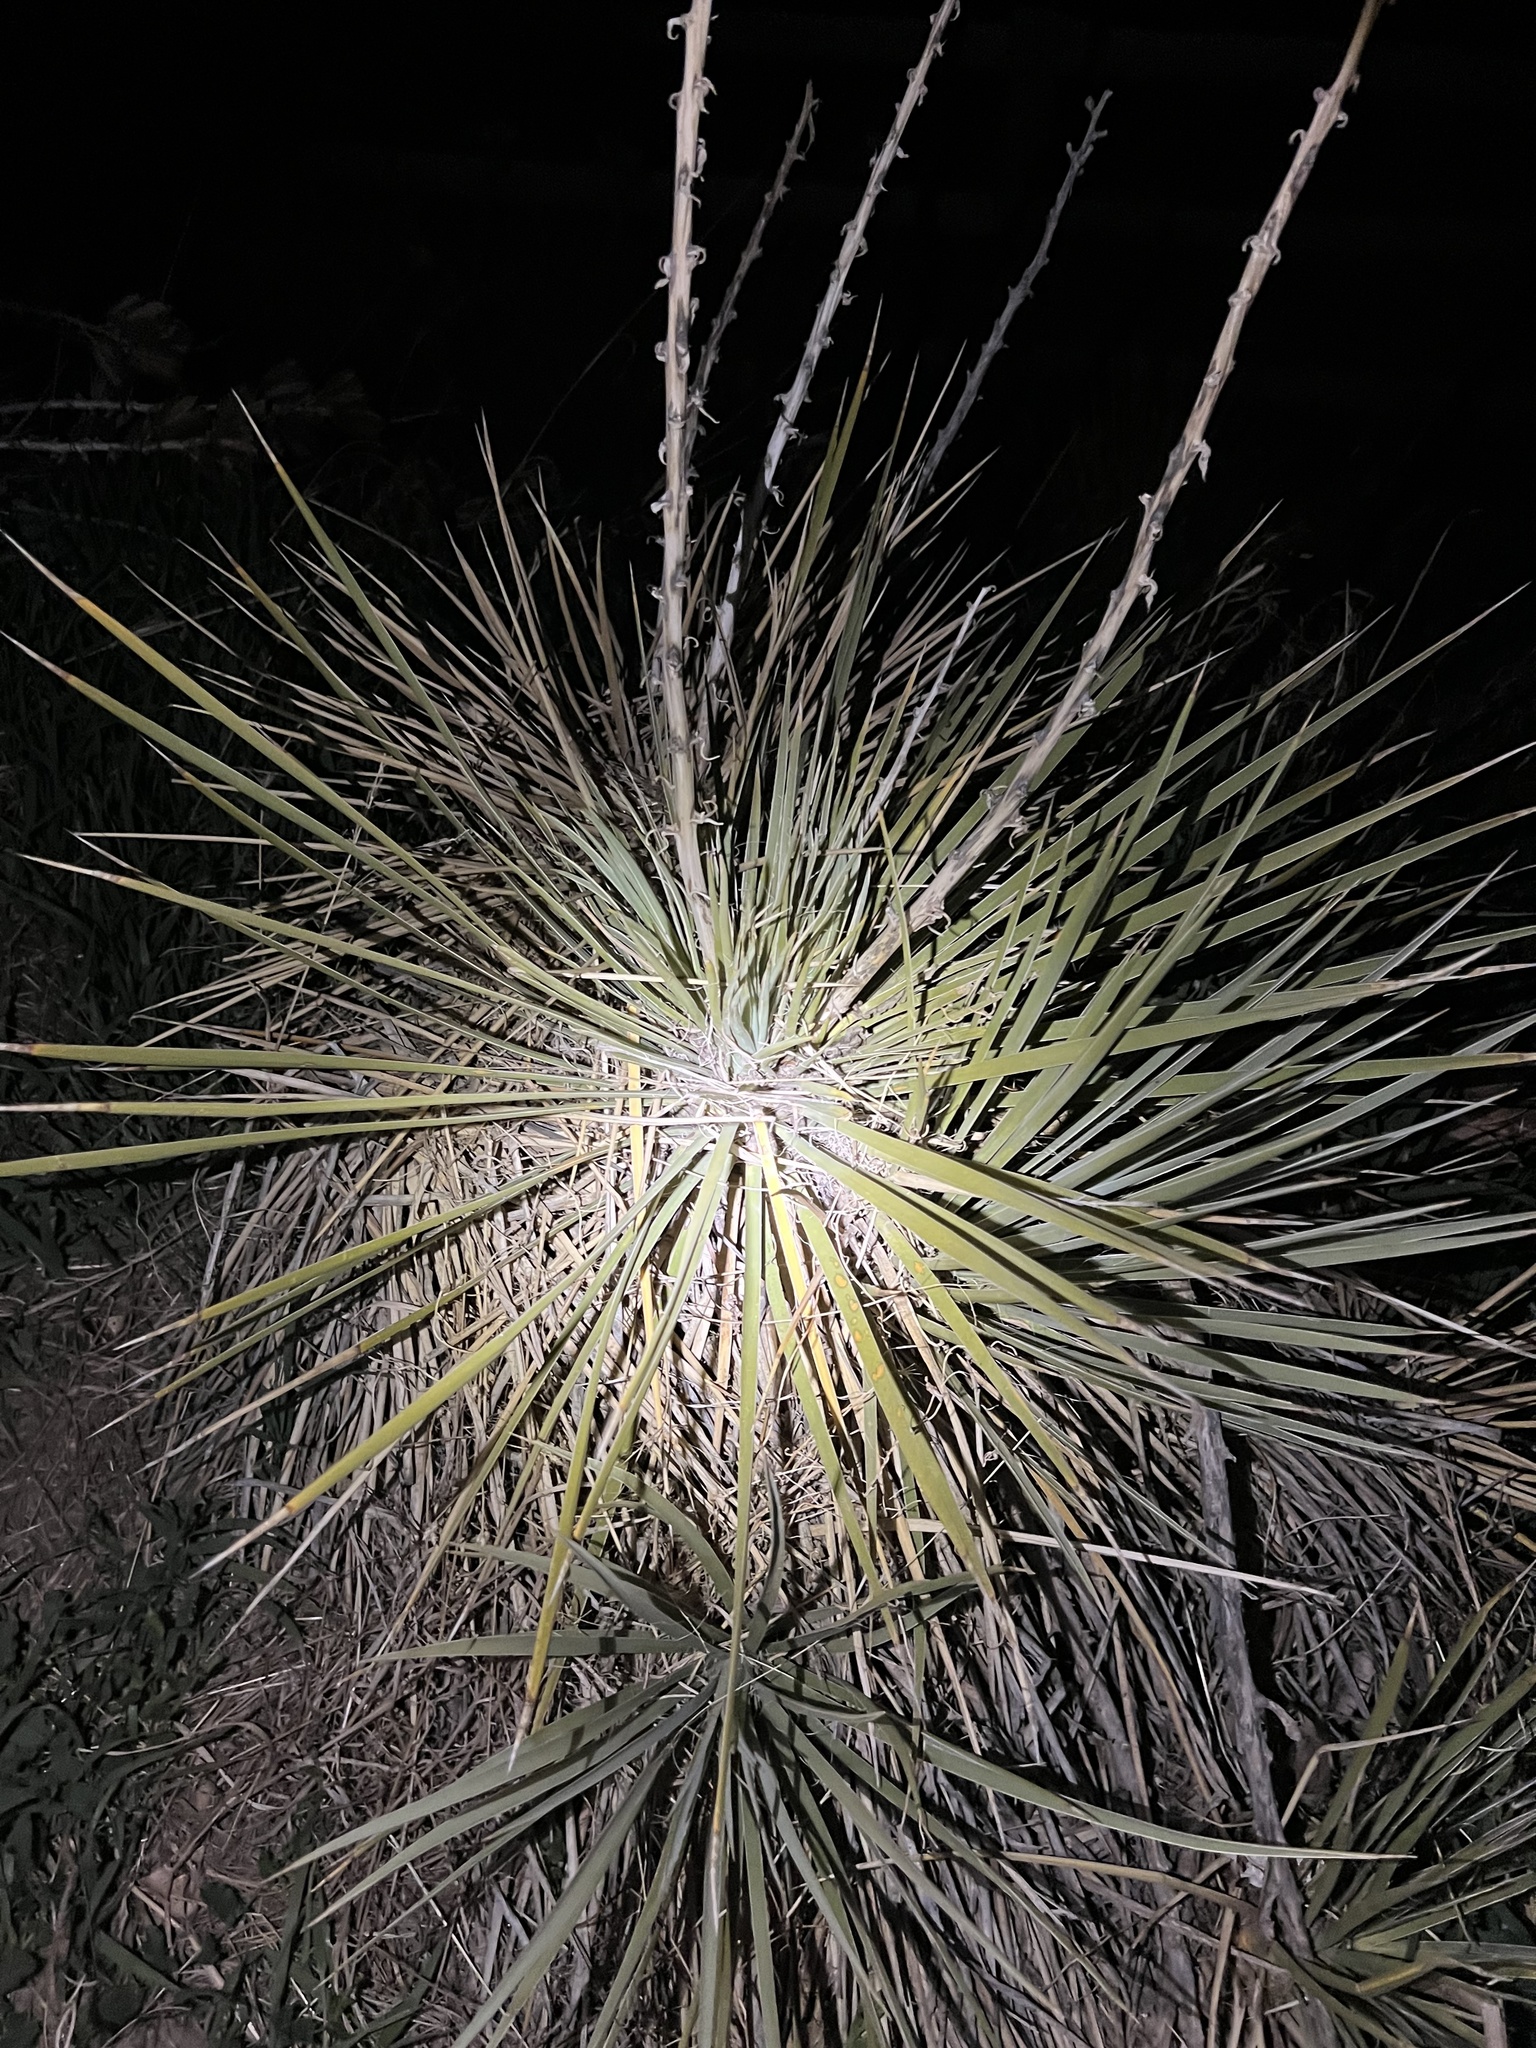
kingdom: Plantae
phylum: Tracheophyta
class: Liliopsida
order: Asparagales
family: Asparagaceae
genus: Yucca
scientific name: Yucca glauca
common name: Great plains yucca
